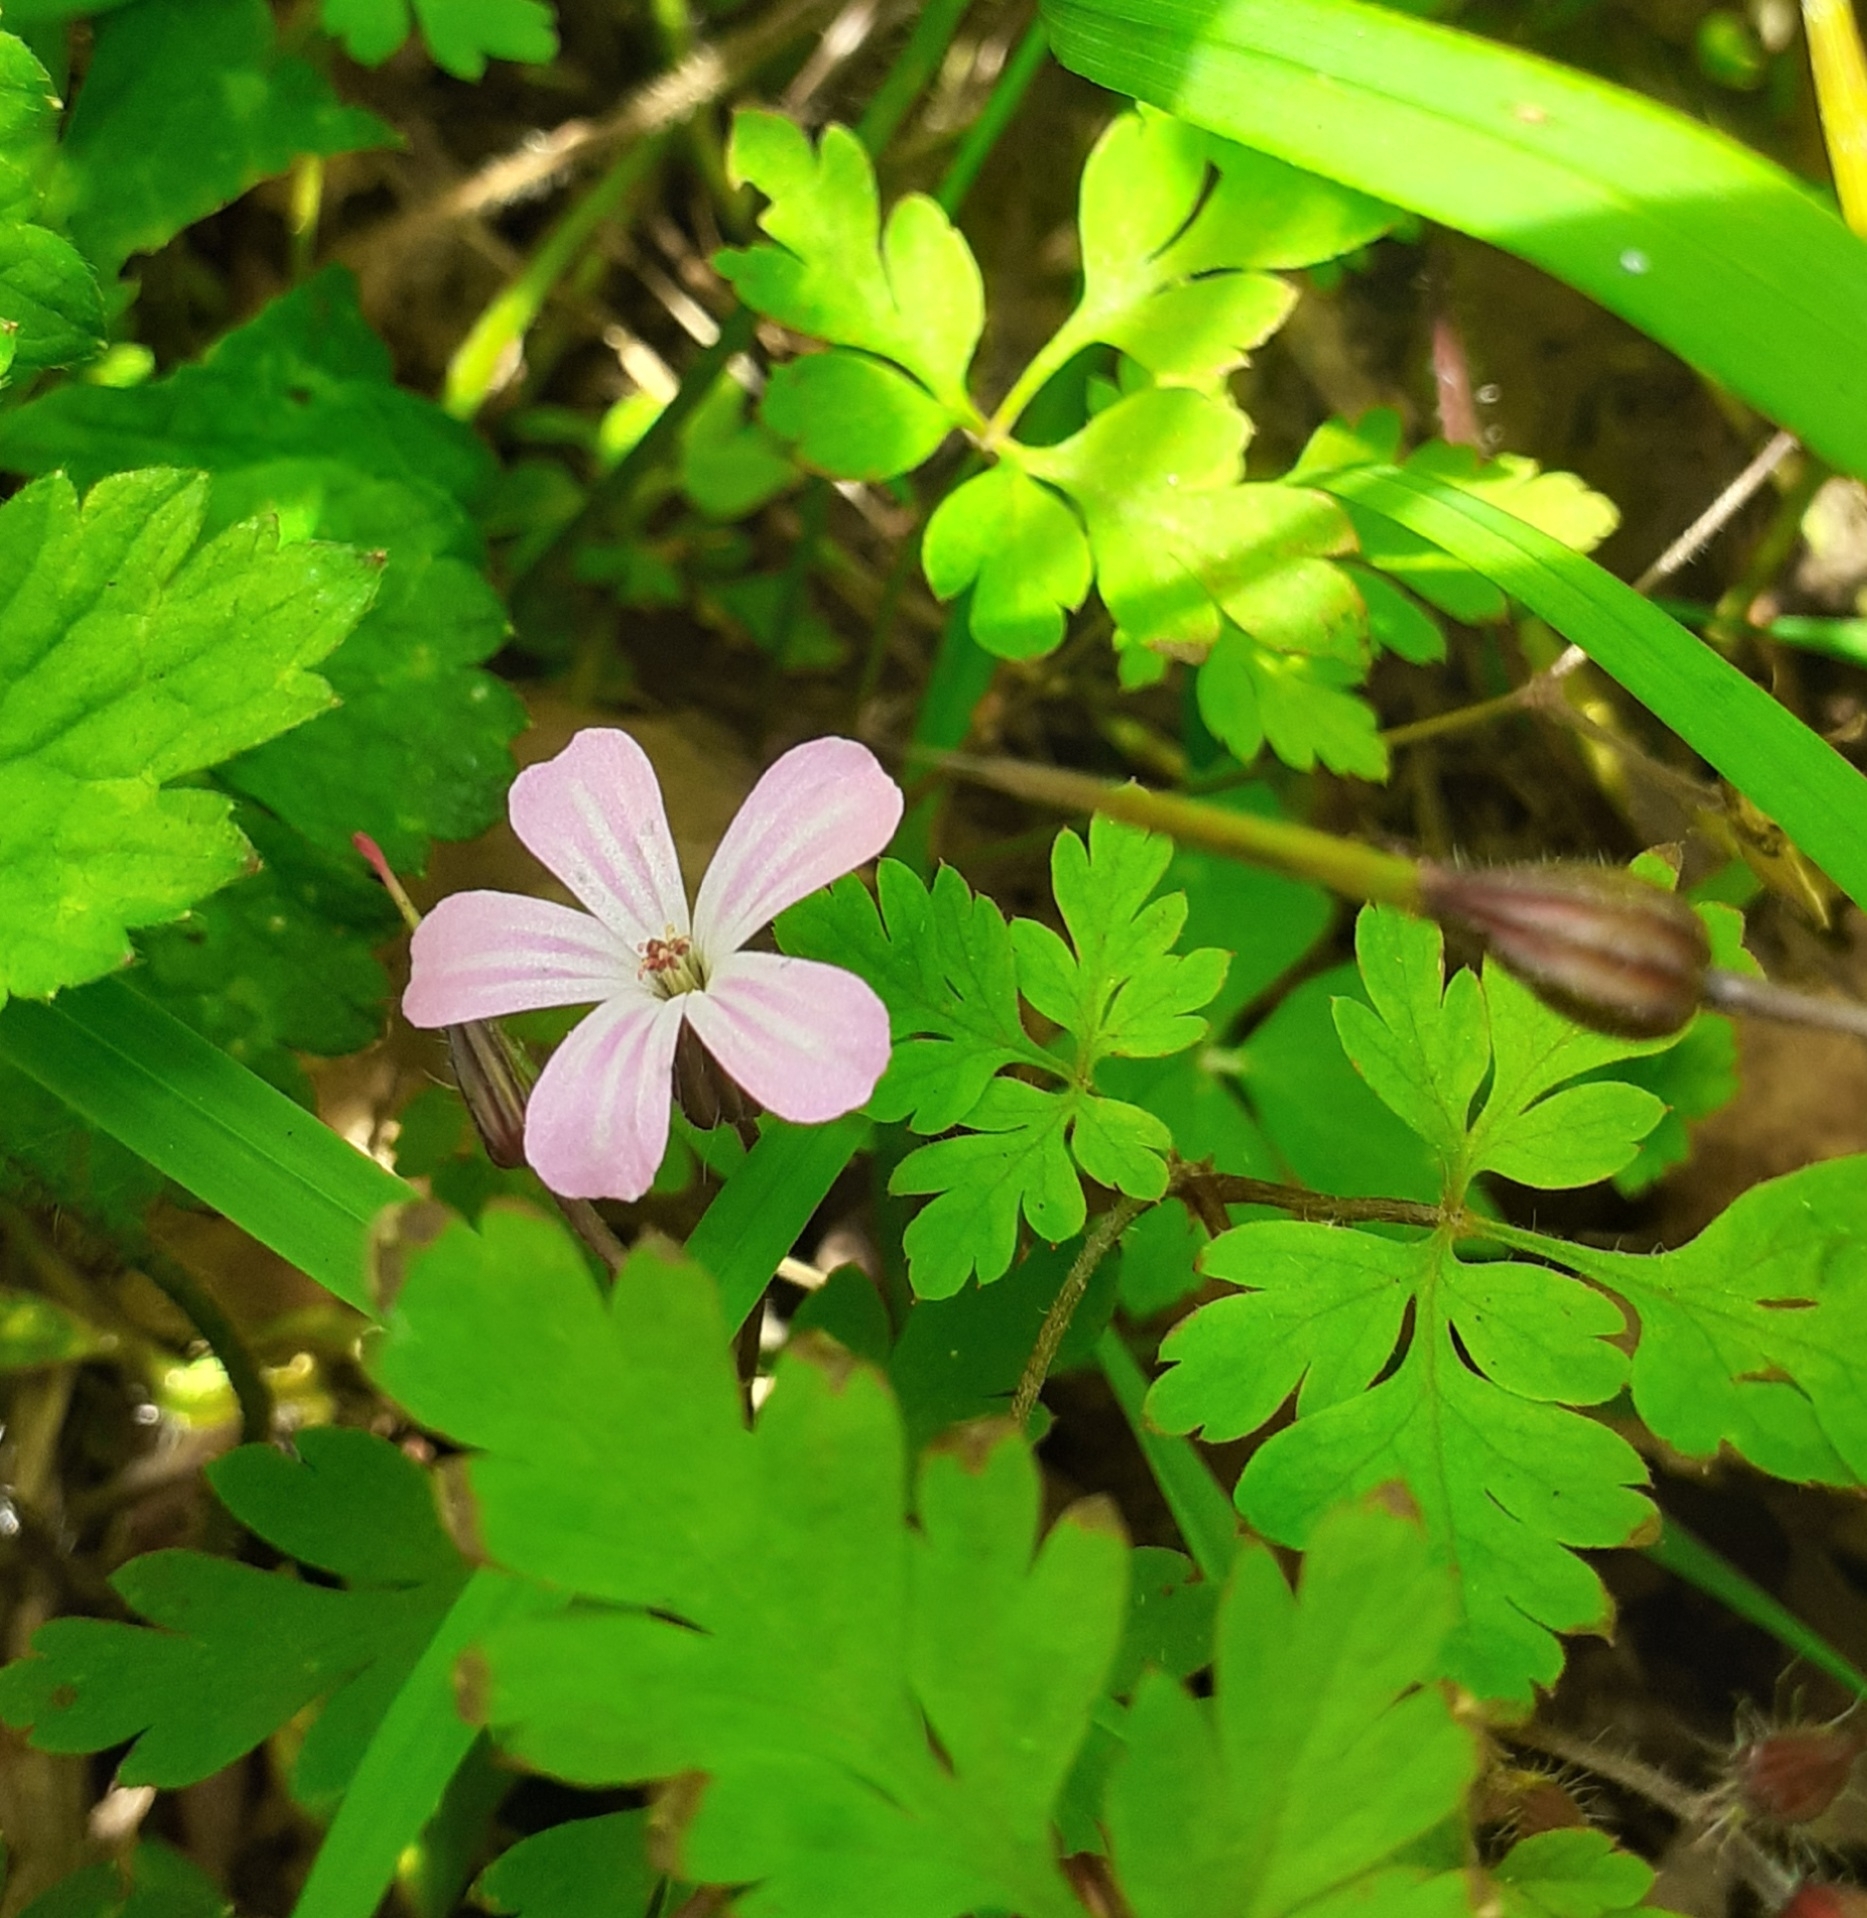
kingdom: Plantae
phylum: Tracheophyta
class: Magnoliopsida
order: Geraniales
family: Geraniaceae
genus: Geranium
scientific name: Geranium robertianum
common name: Herb-robert
